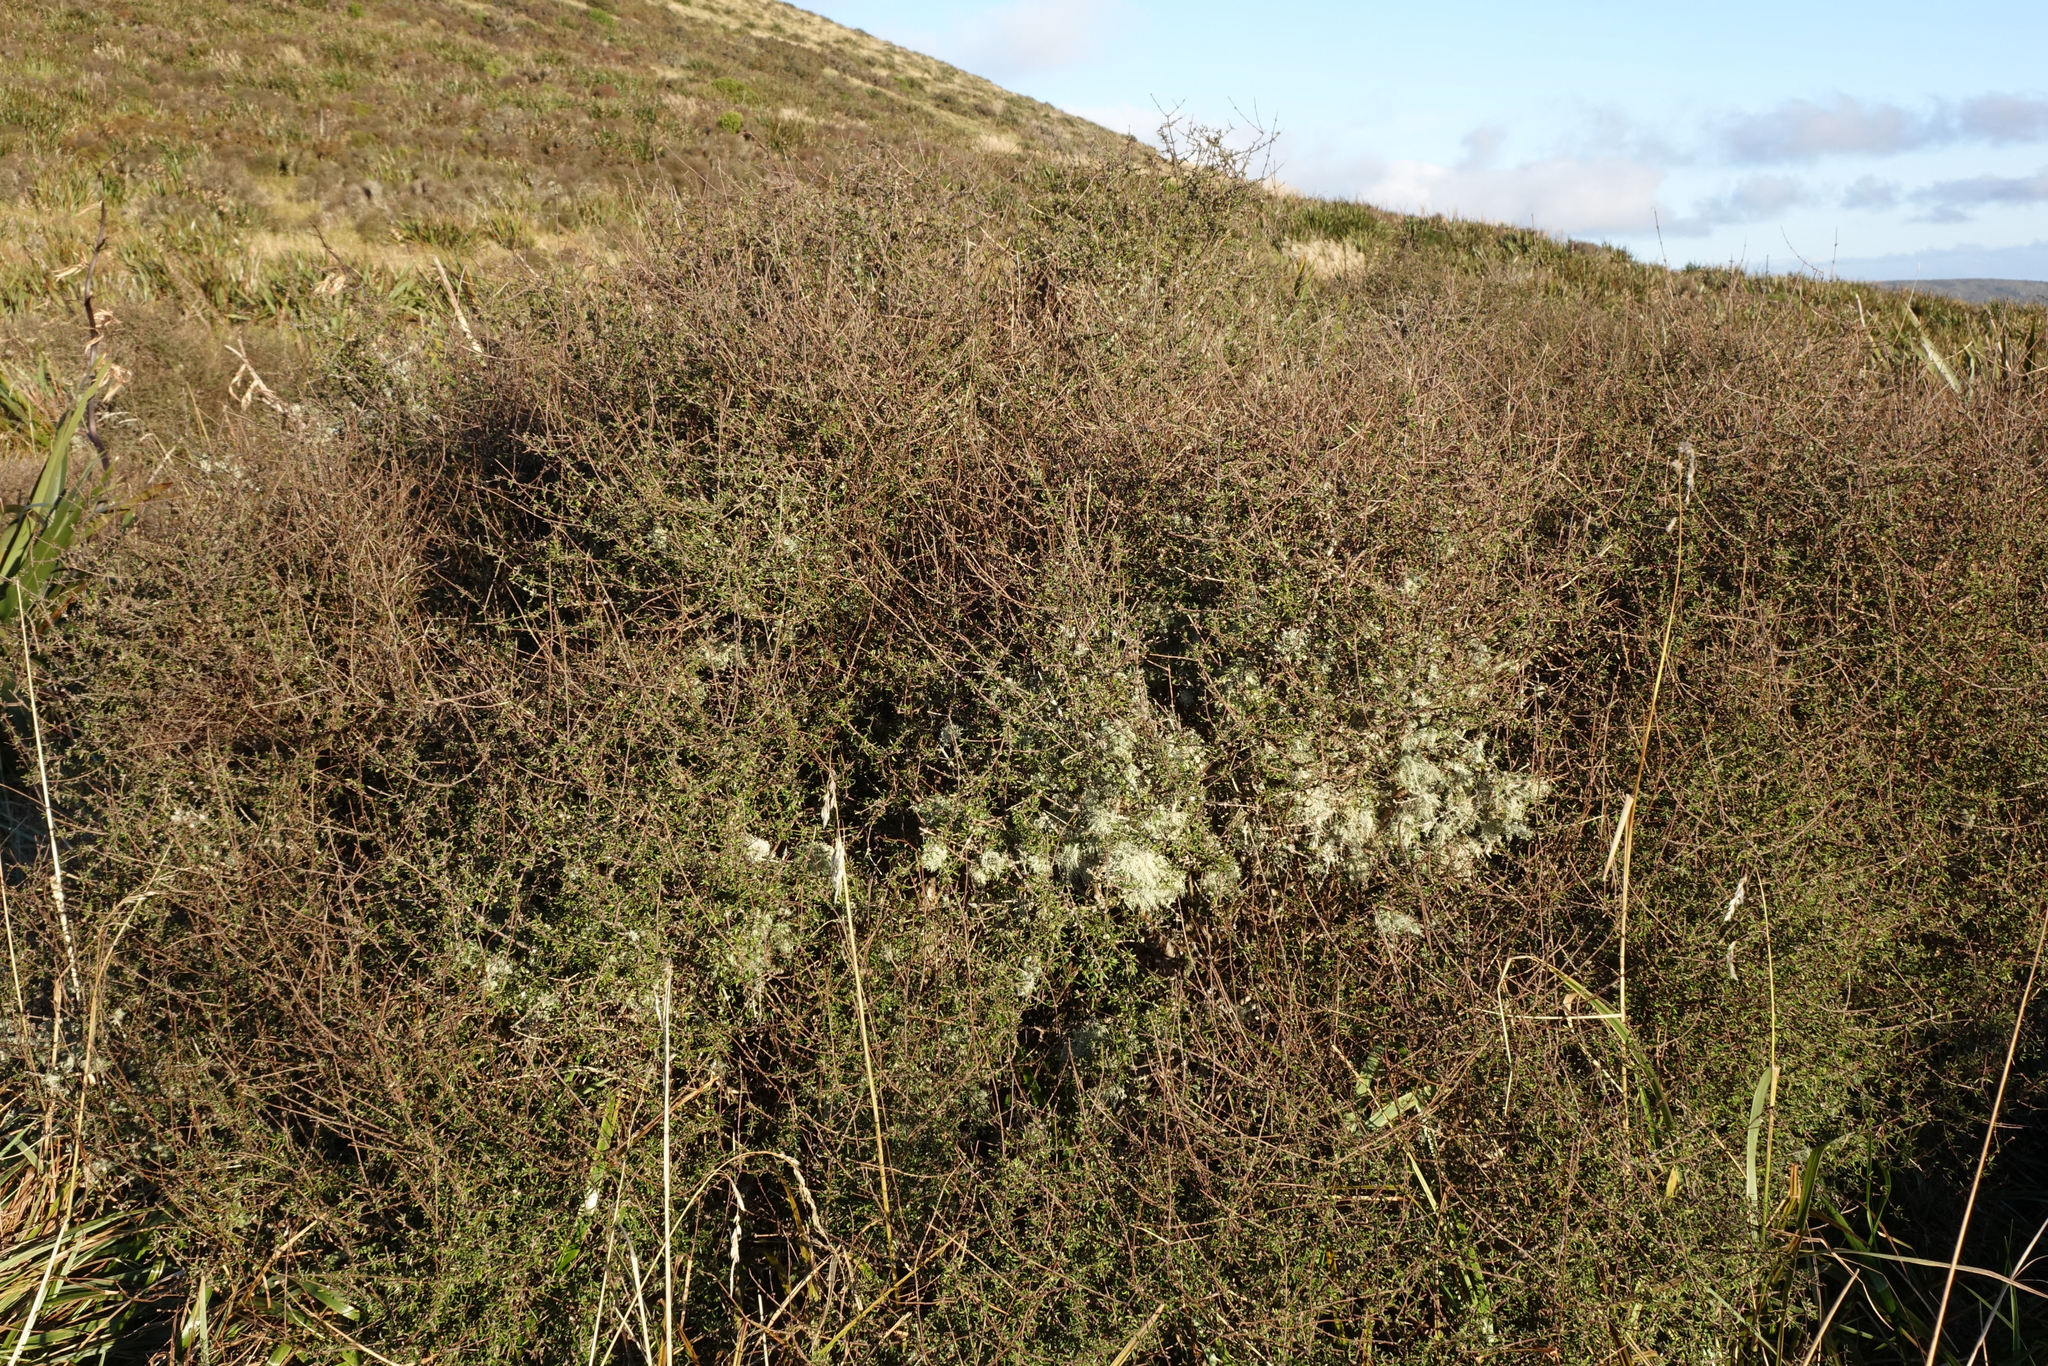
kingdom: Plantae
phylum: Tracheophyta
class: Magnoliopsida
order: Asterales
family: Asteraceae
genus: Olearia
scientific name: Olearia bullata
